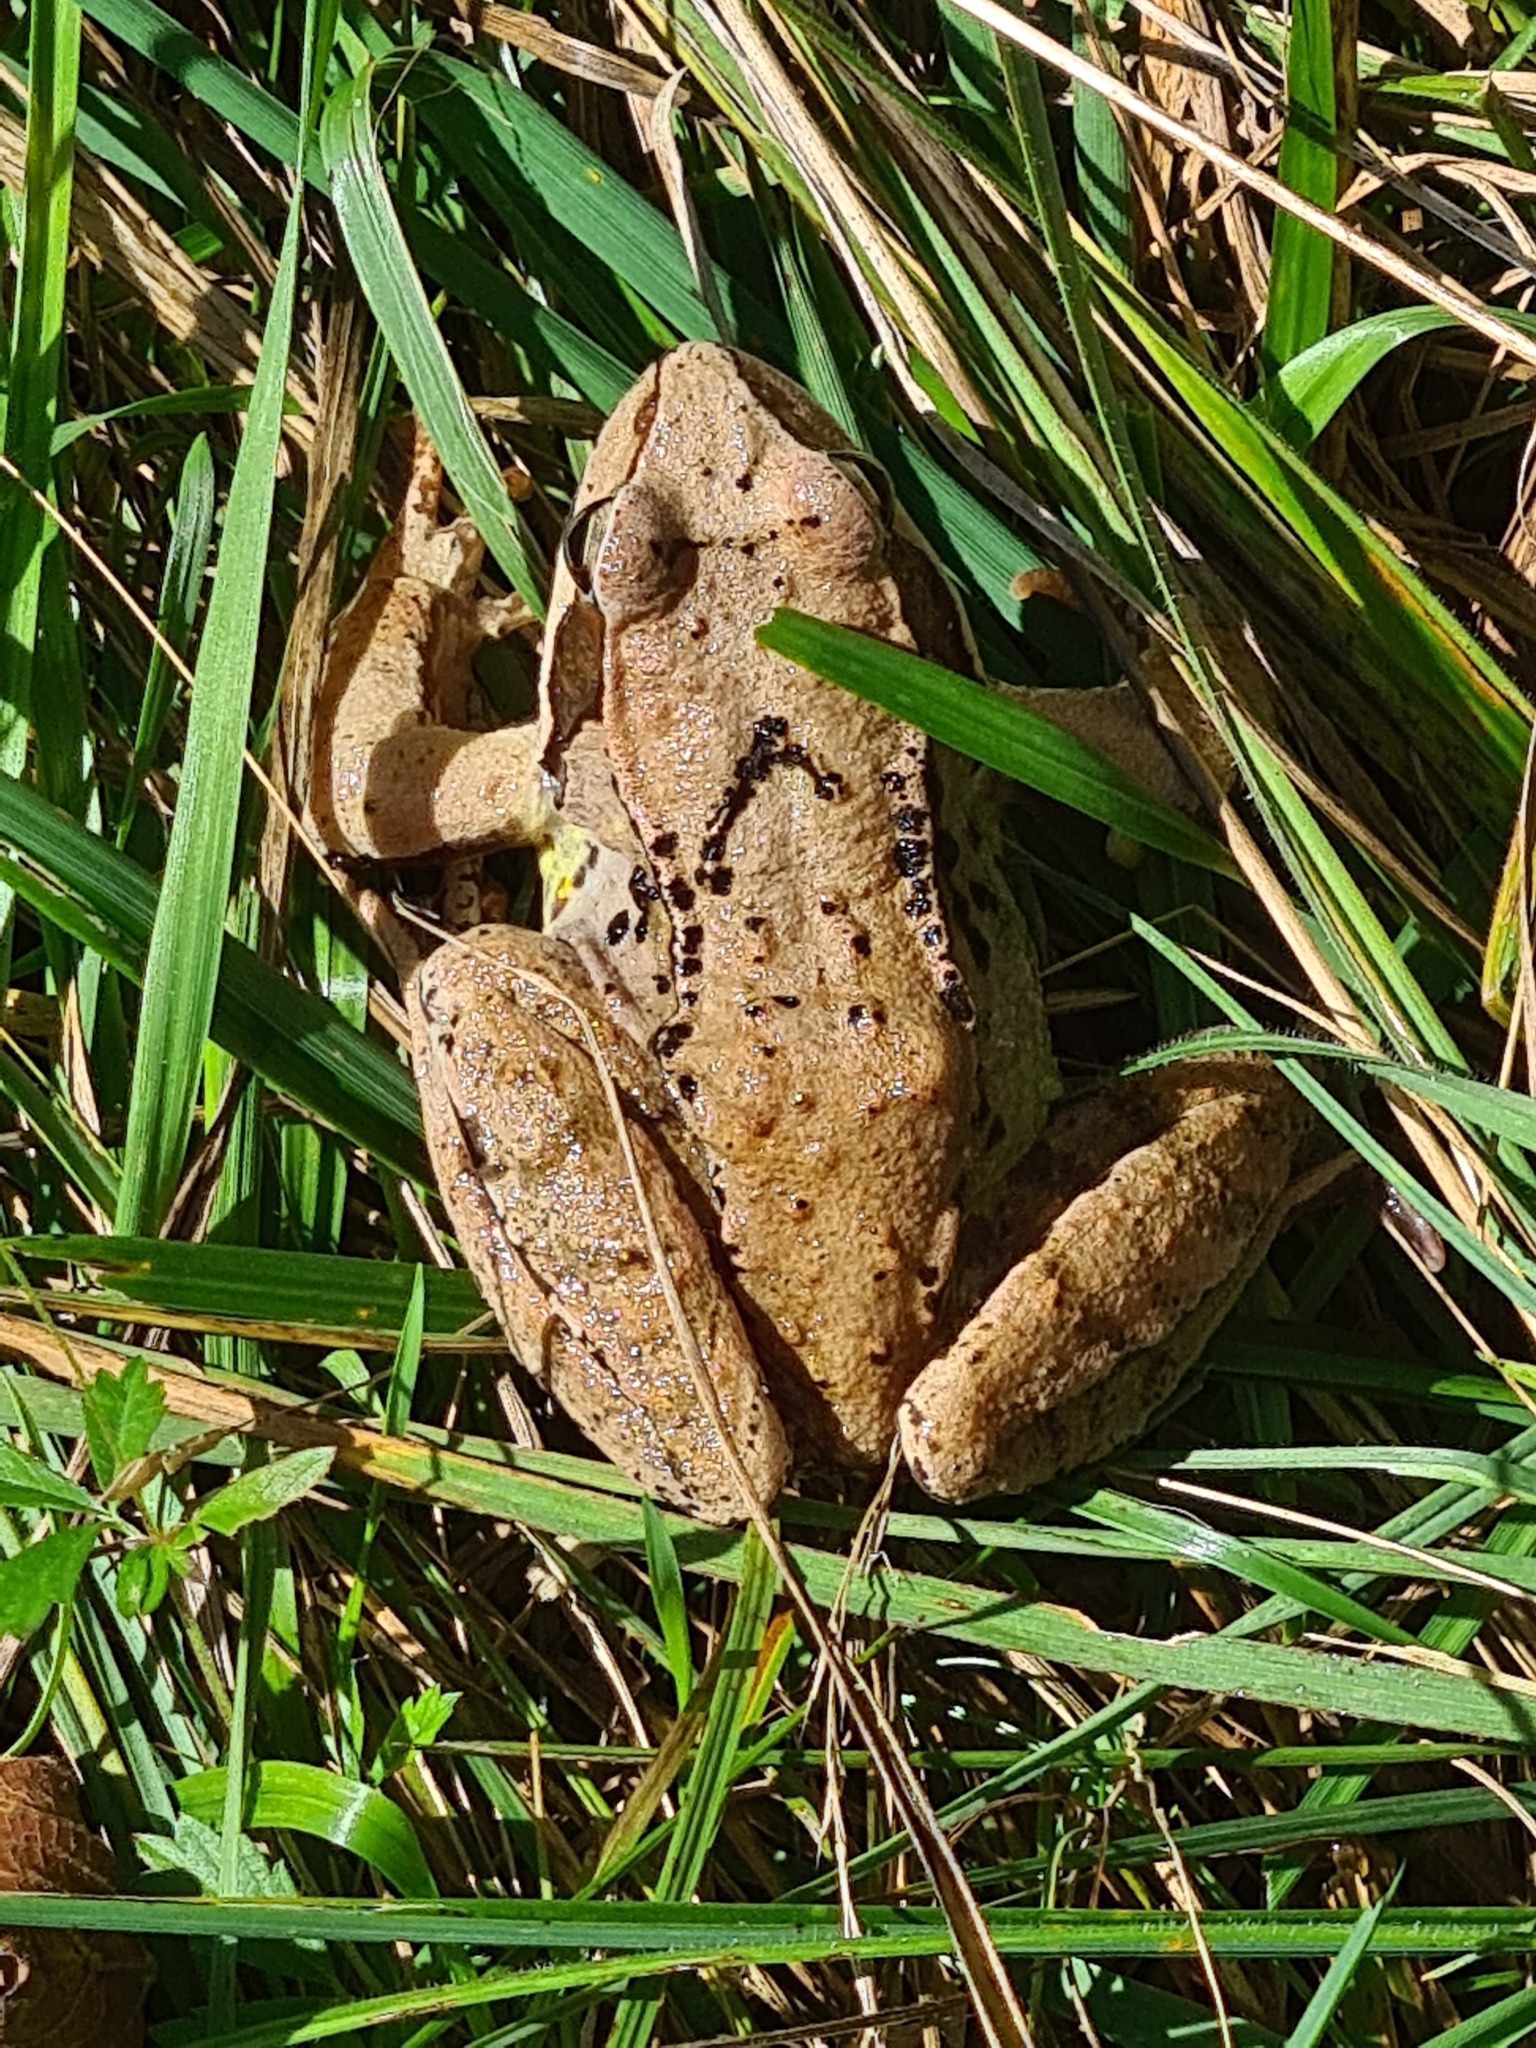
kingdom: Animalia
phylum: Chordata
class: Amphibia
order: Anura
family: Ranidae
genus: Rana
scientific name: Rana temporaria
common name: Common frog
